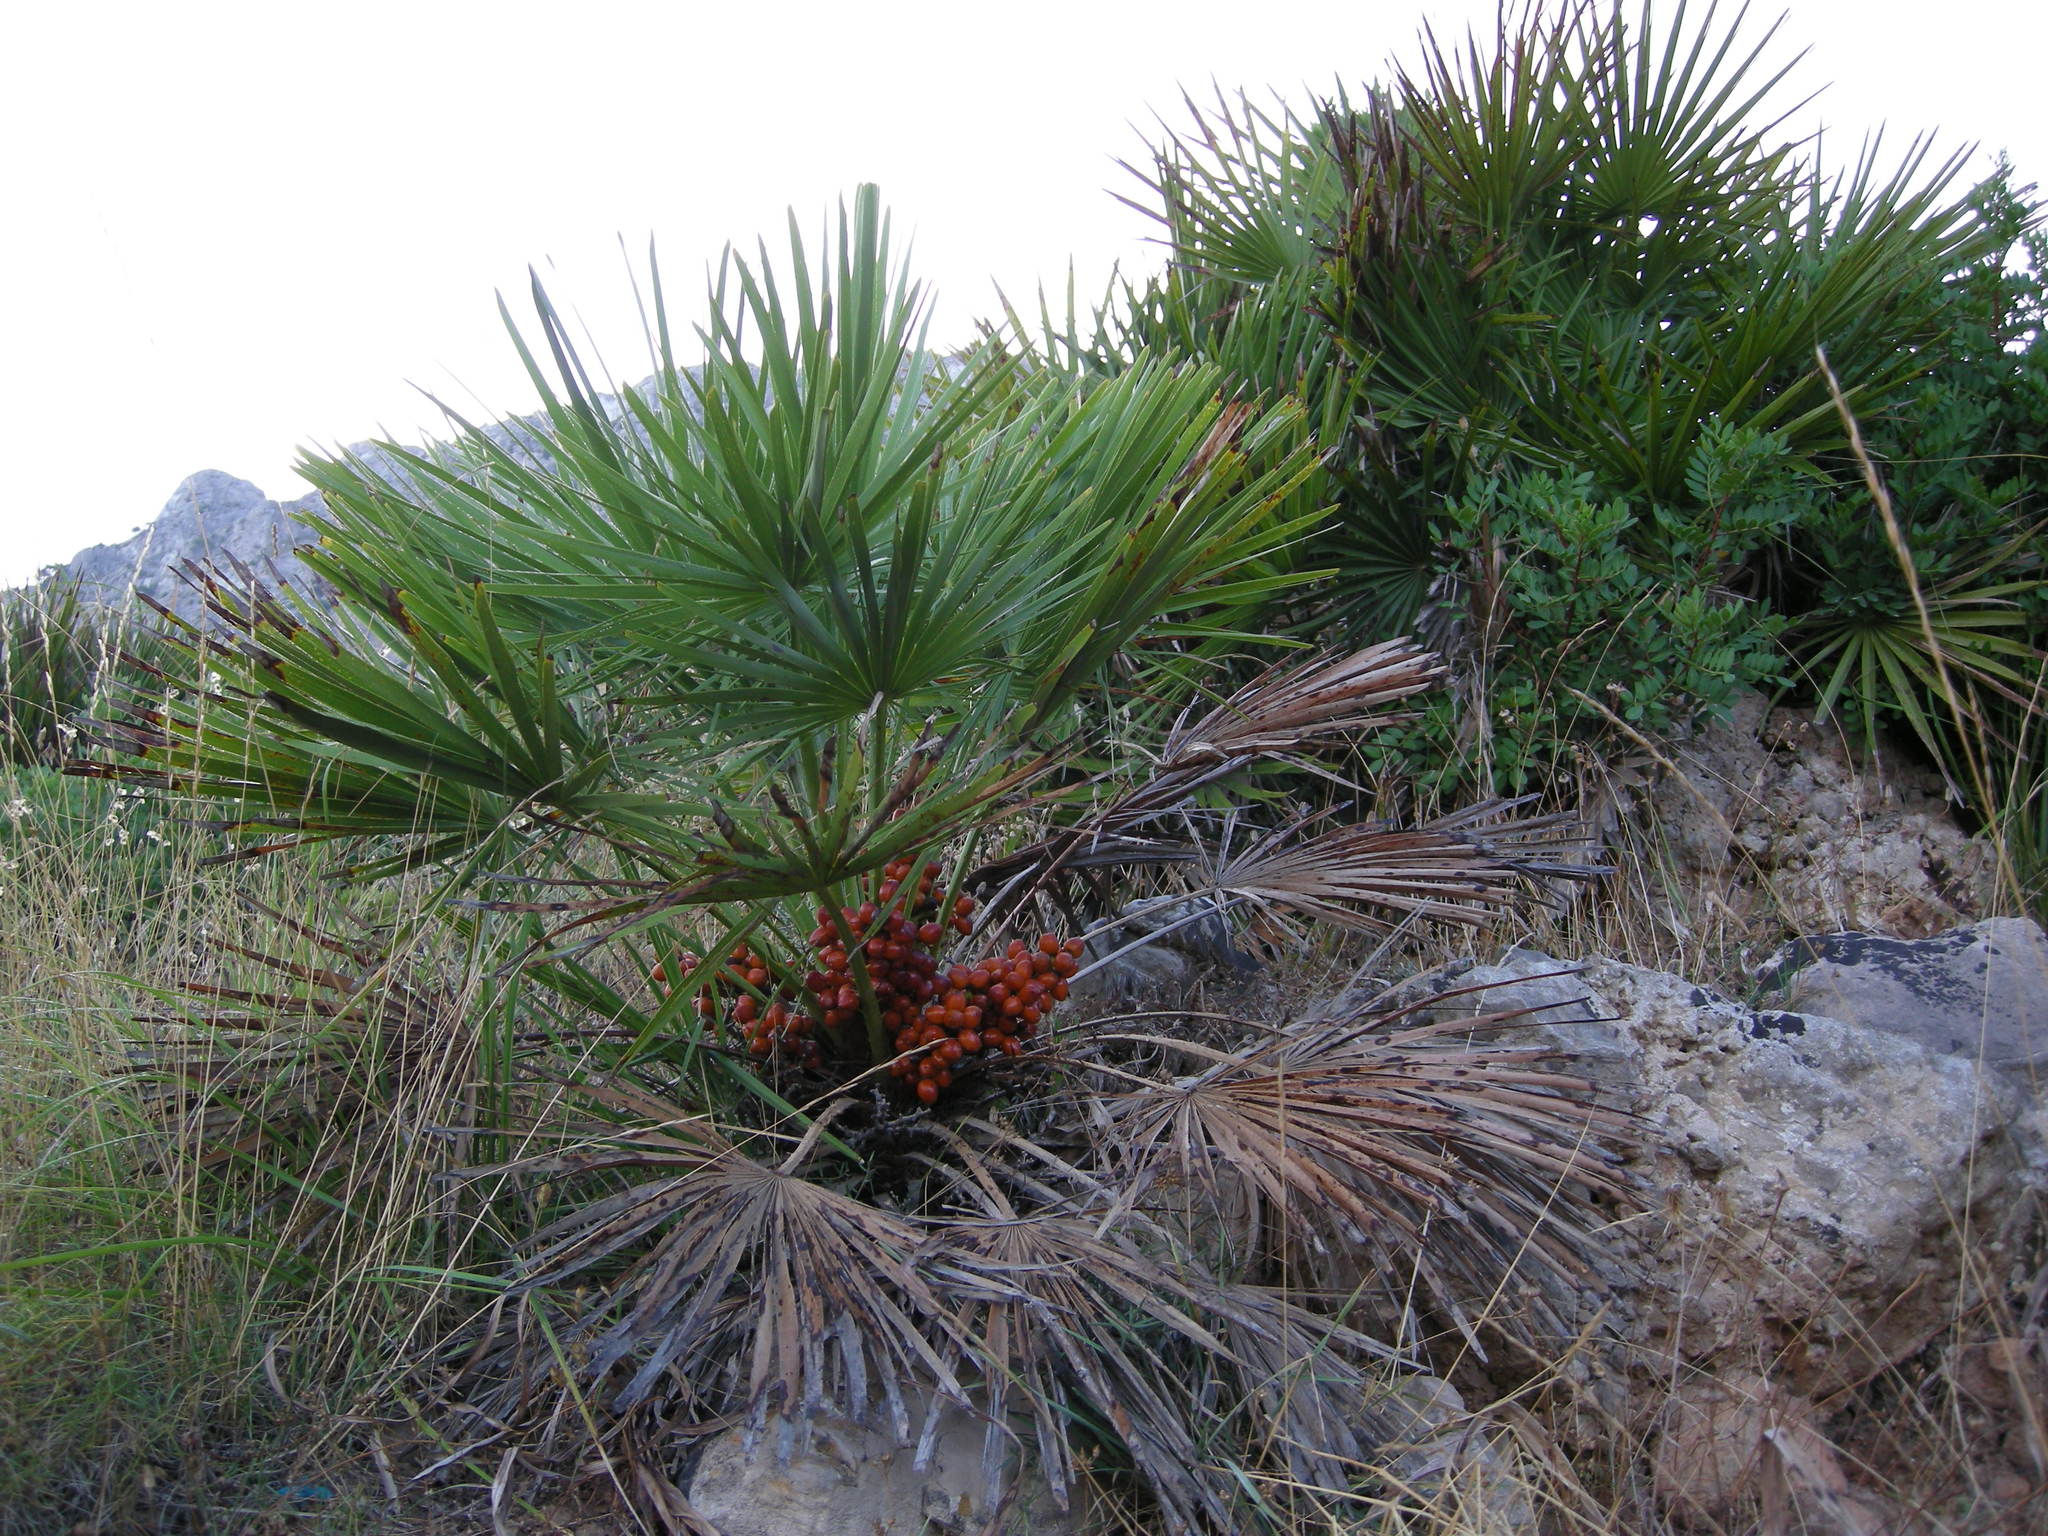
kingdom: Plantae
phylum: Tracheophyta
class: Liliopsida
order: Arecales
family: Arecaceae
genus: Chamaerops
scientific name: Chamaerops humilis
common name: Dwarf fan palm
